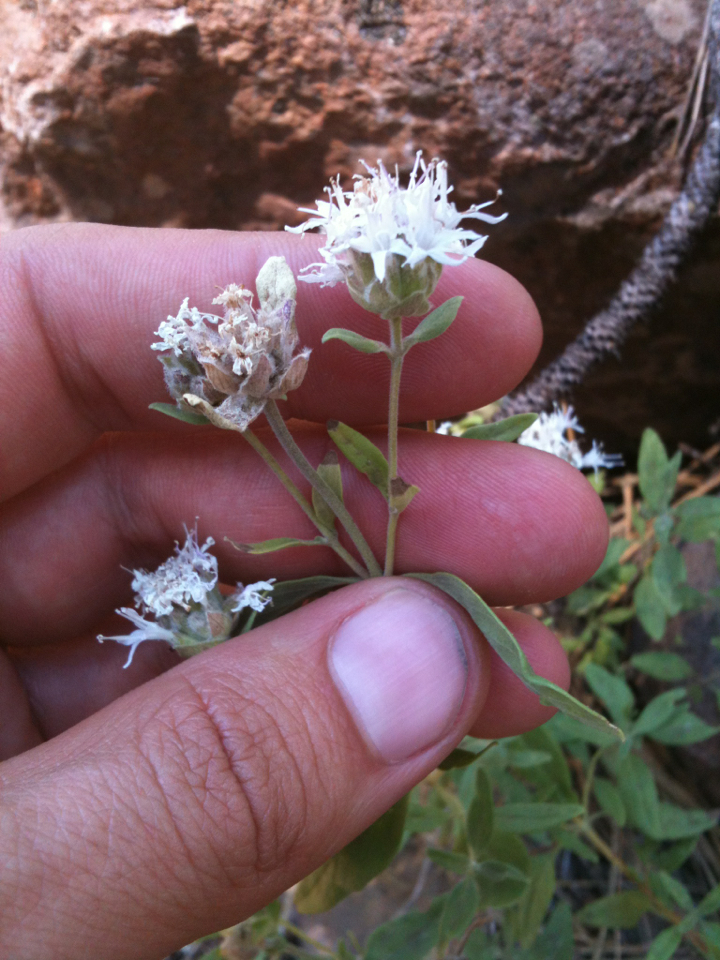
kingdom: Plantae
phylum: Tracheophyta
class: Magnoliopsida
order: Lamiales
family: Lamiaceae
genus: Monardella
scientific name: Monardella odoratissima
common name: Pacific monardella
